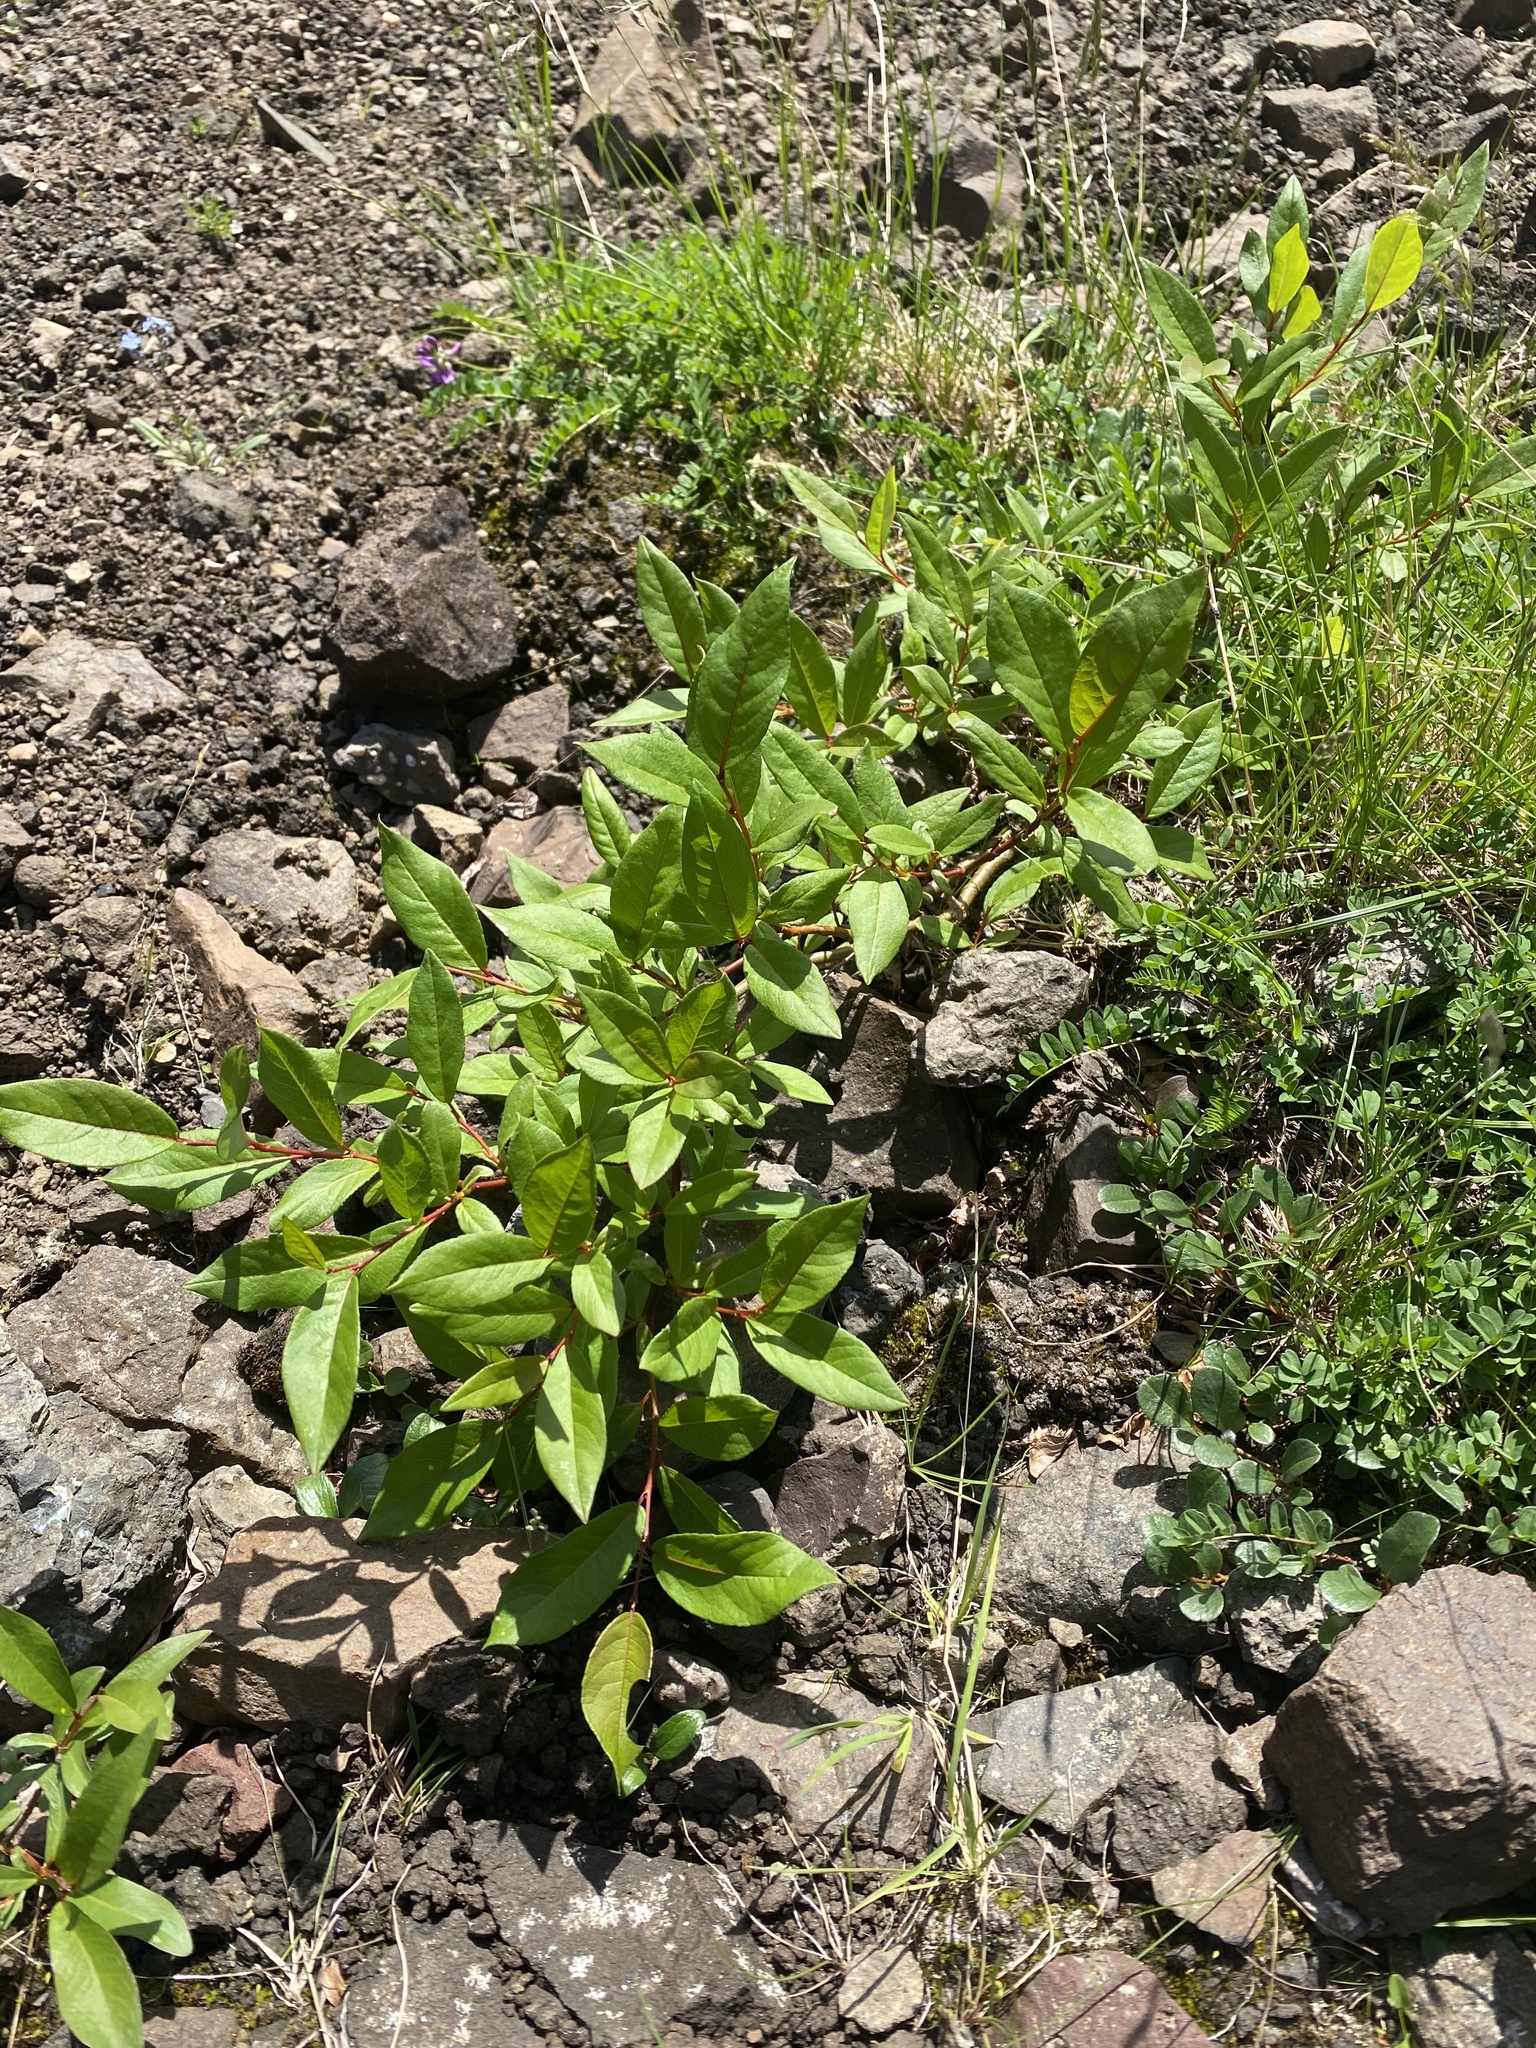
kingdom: Plantae
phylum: Tracheophyta
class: Magnoliopsida
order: Malpighiales
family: Salicaceae
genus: Salix
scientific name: Salix hastata
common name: Halberd willow
